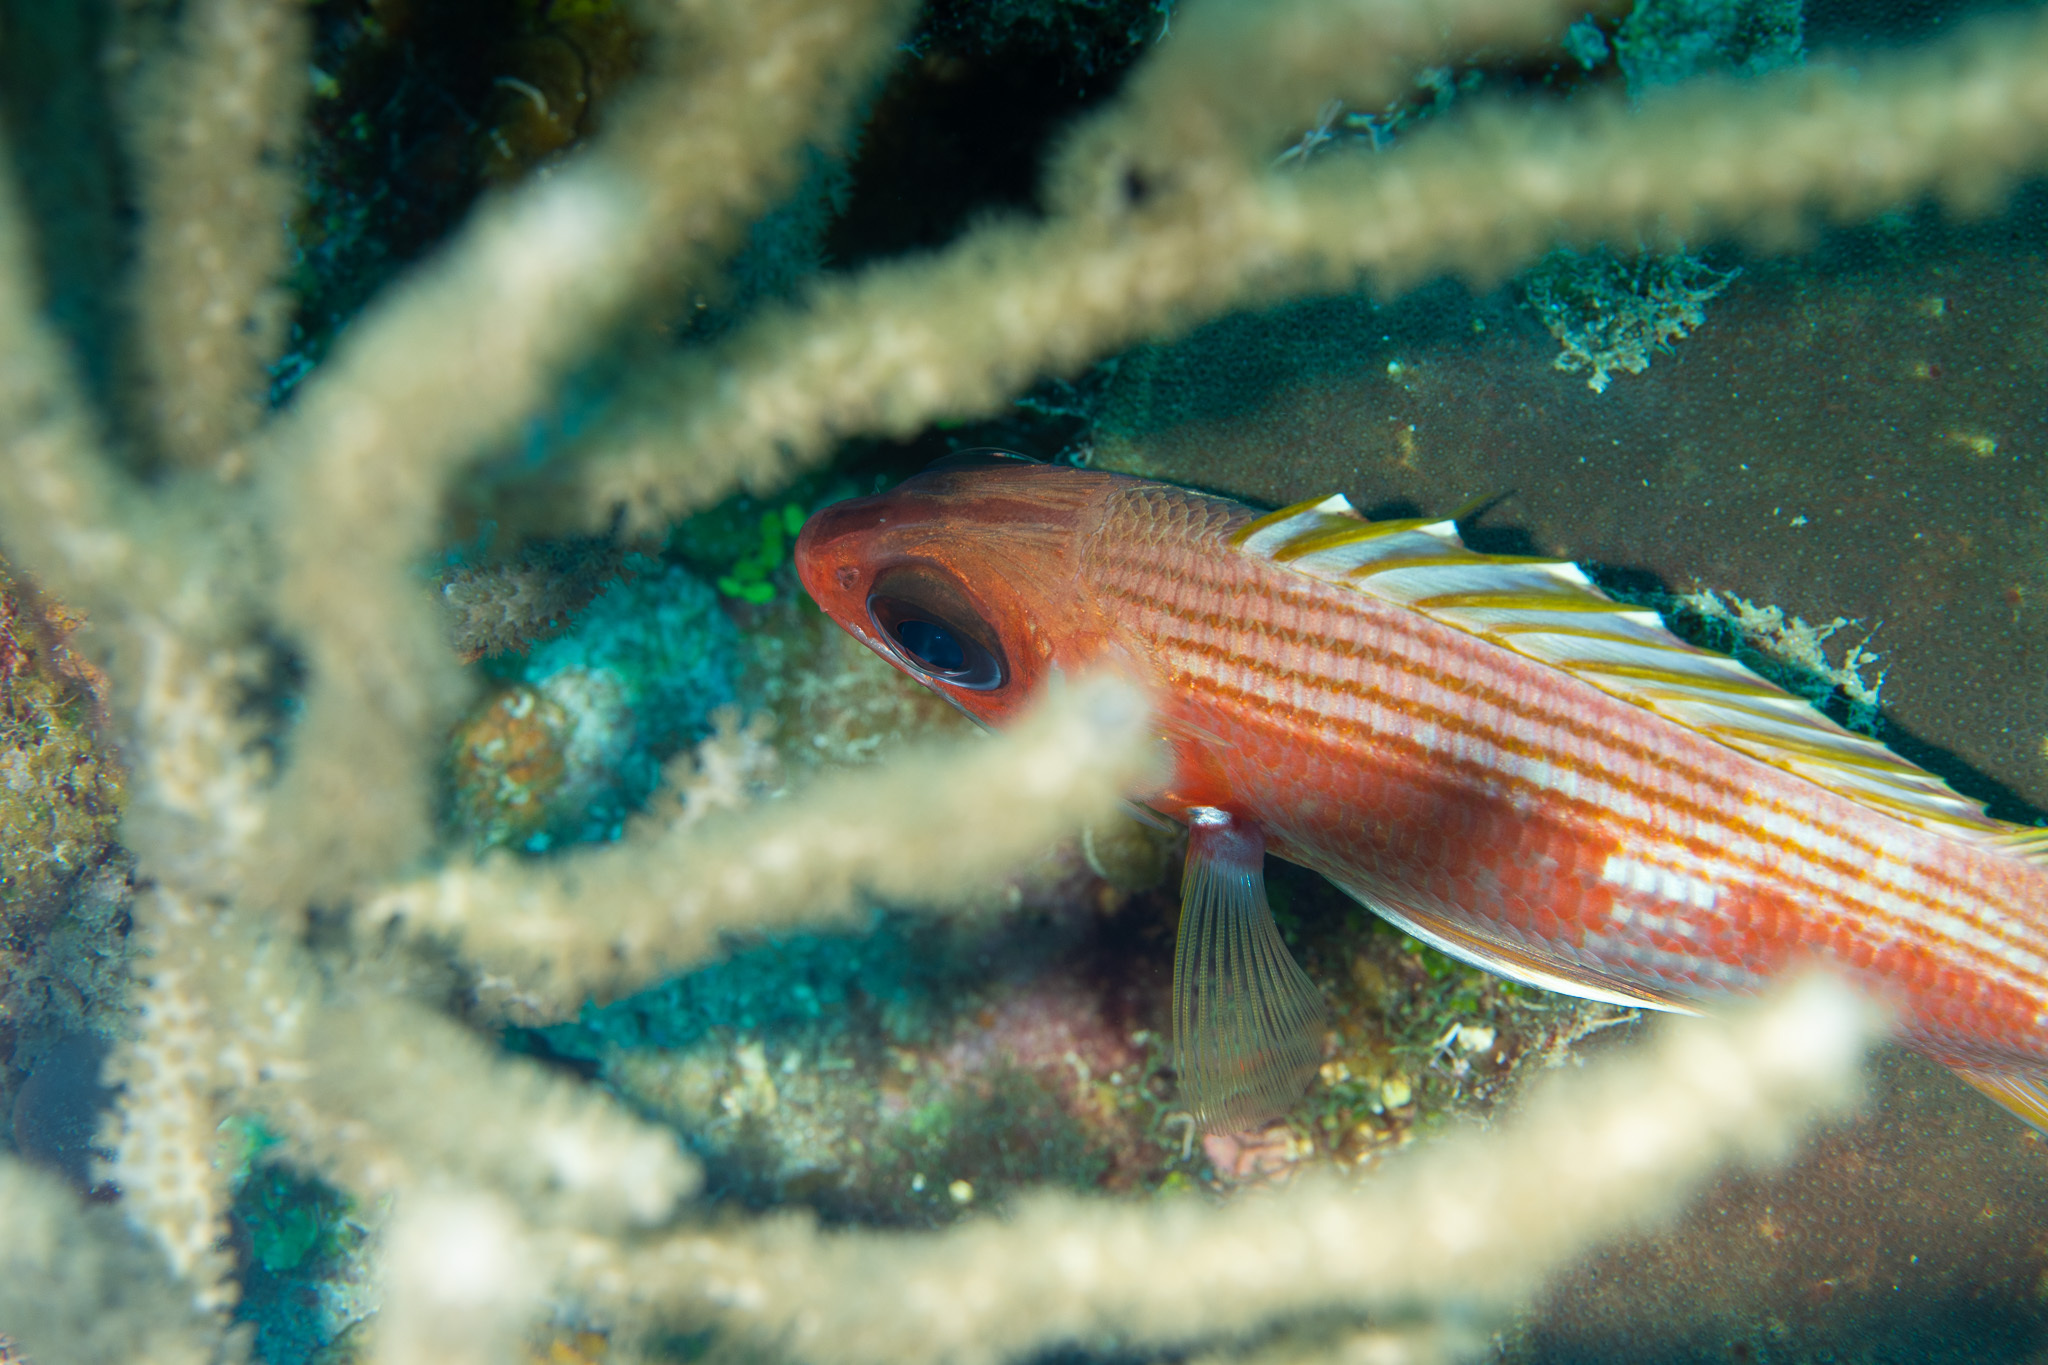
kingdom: Animalia
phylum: Chordata
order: Beryciformes
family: Holocentridae
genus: Holocentrus
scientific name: Holocentrus rufus
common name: Longspine squirrelfish
